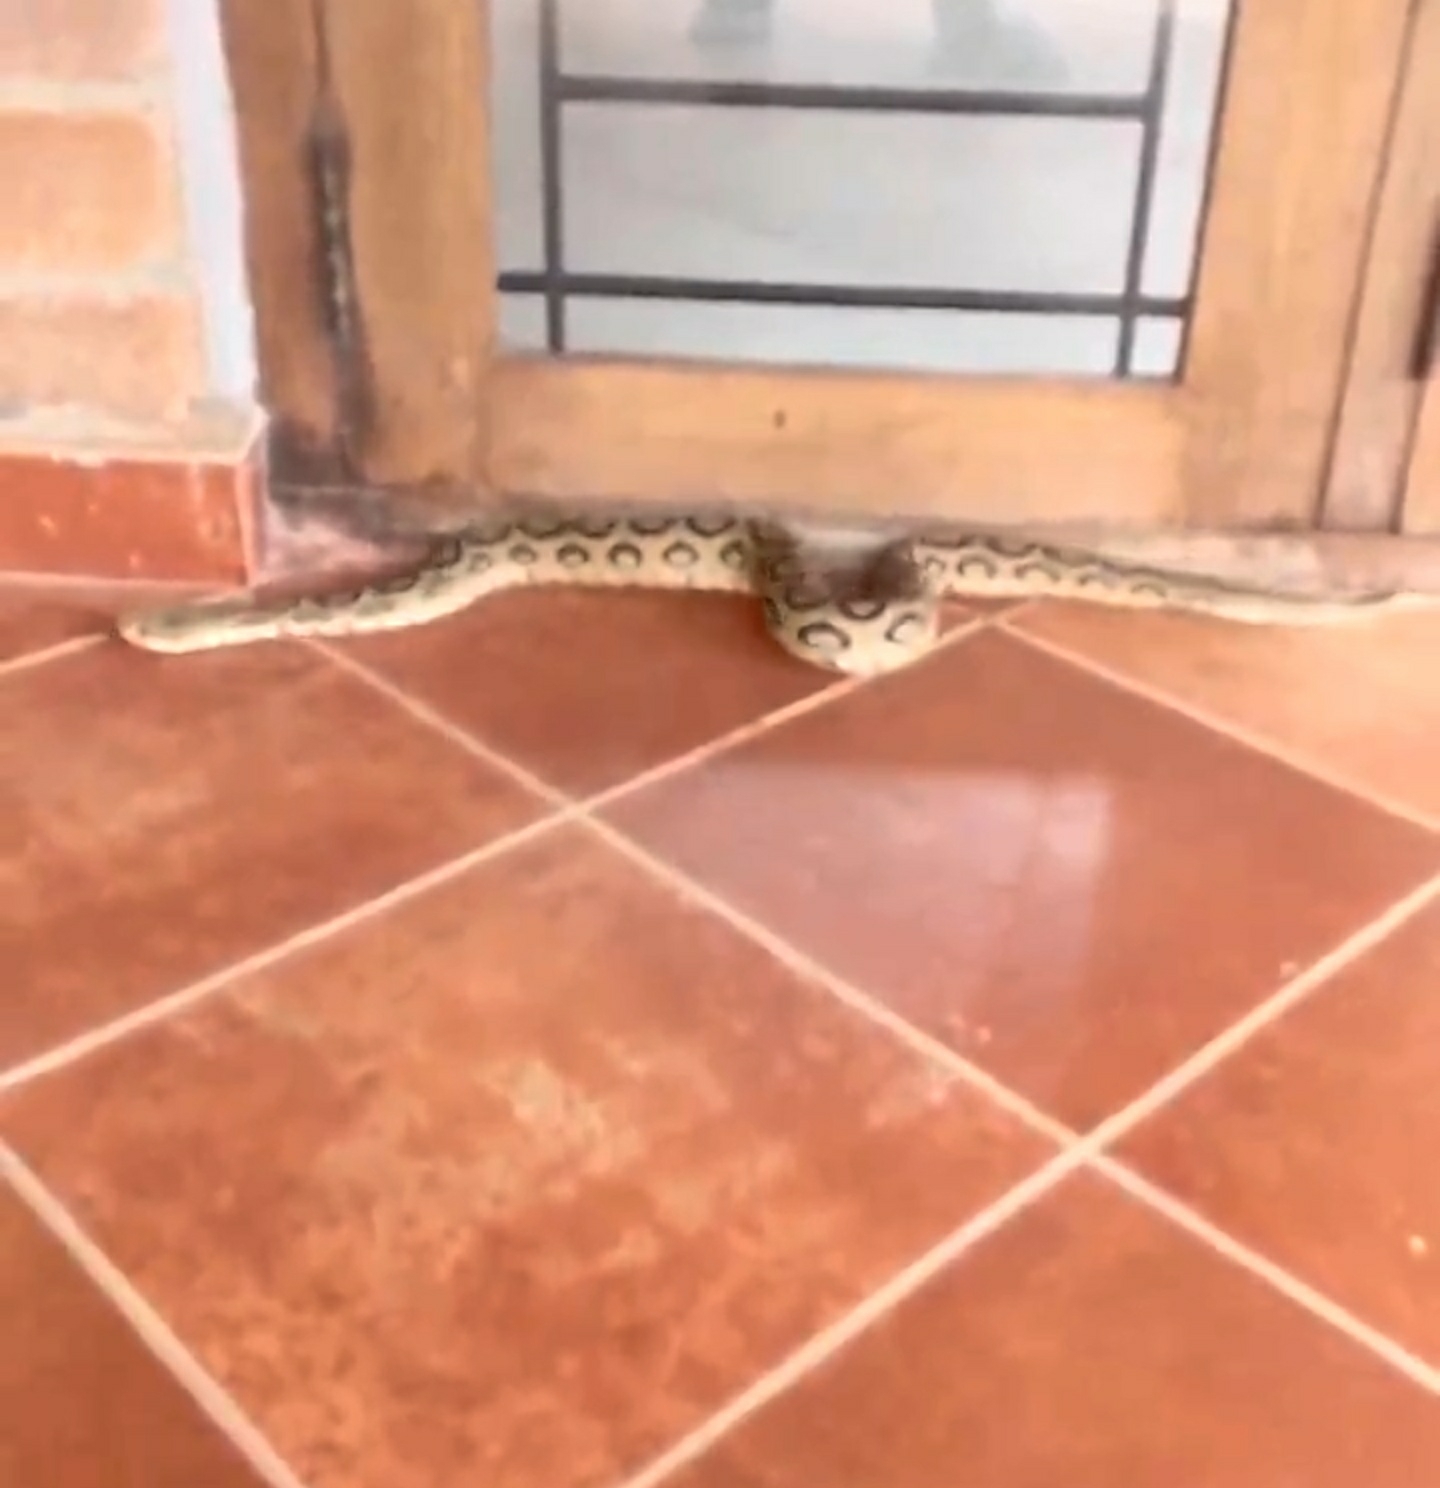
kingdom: Animalia
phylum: Chordata
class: Squamata
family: Viperidae
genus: Daboia
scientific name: Daboia russelii
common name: Western russel’s viper
